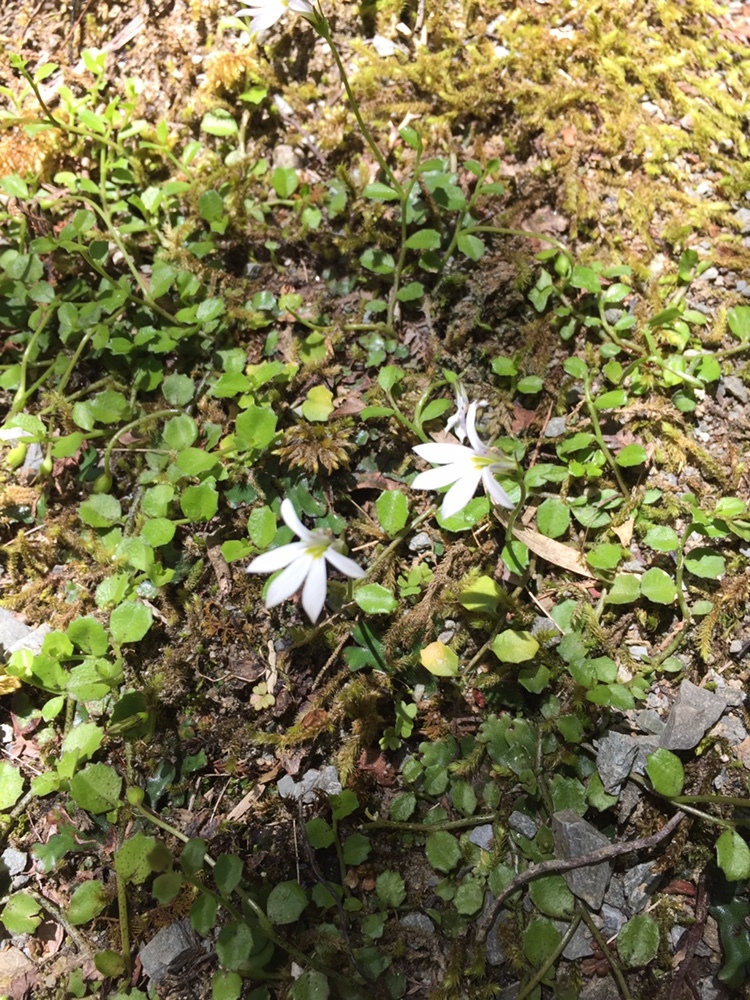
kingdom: Plantae
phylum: Tracheophyta
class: Magnoliopsida
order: Asterales
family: Campanulaceae
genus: Lobelia
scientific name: Lobelia angulata
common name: Lawn lobelia
